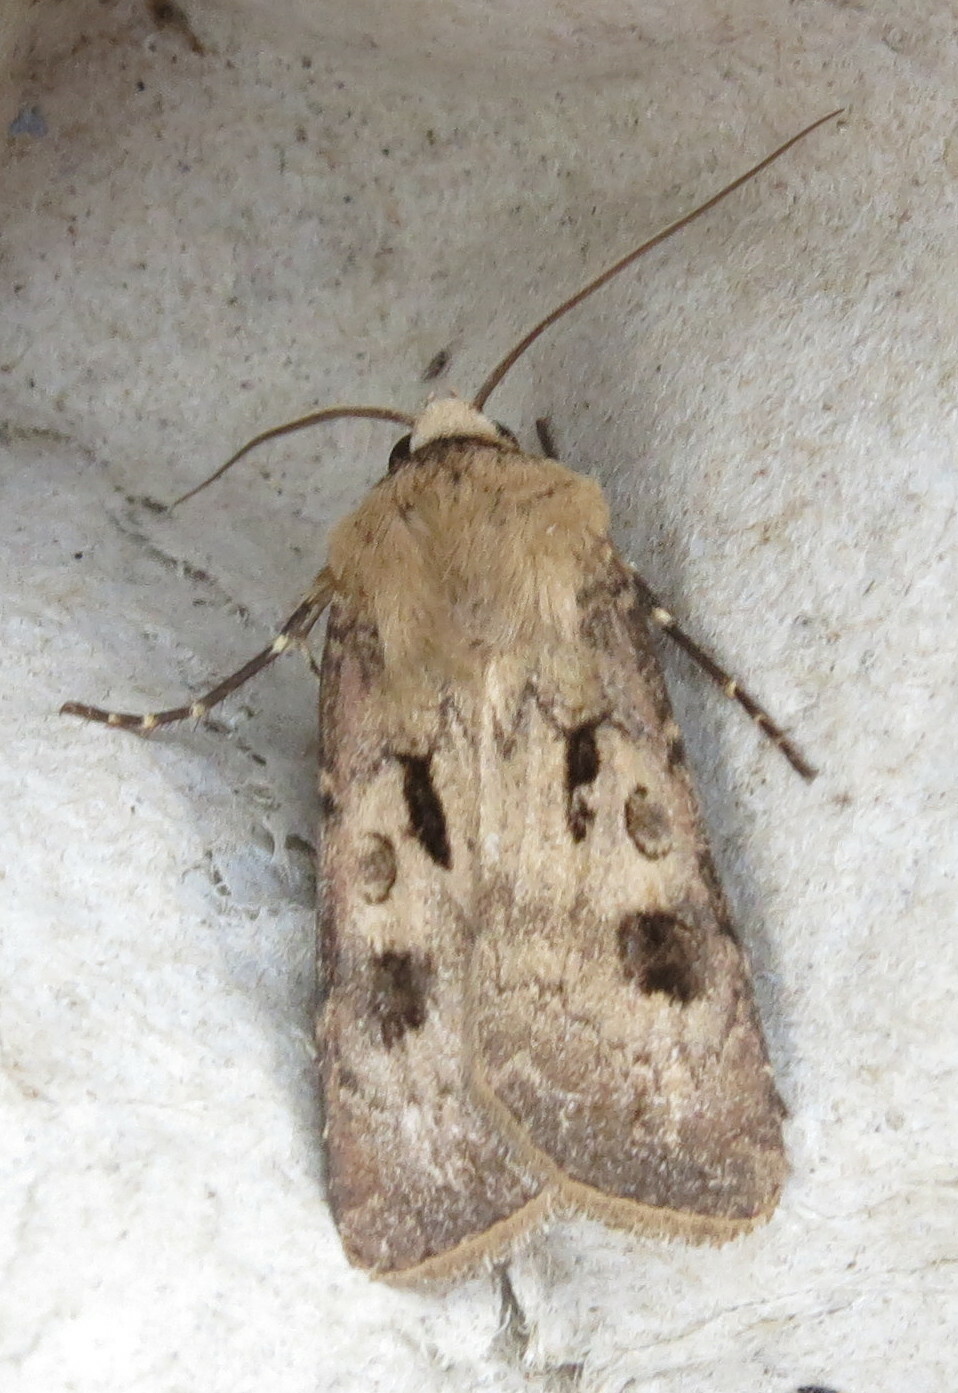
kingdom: Animalia
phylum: Arthropoda
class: Insecta
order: Lepidoptera
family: Noctuidae
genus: Agrotis
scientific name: Agrotis exclamationis
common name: Heart and dart
